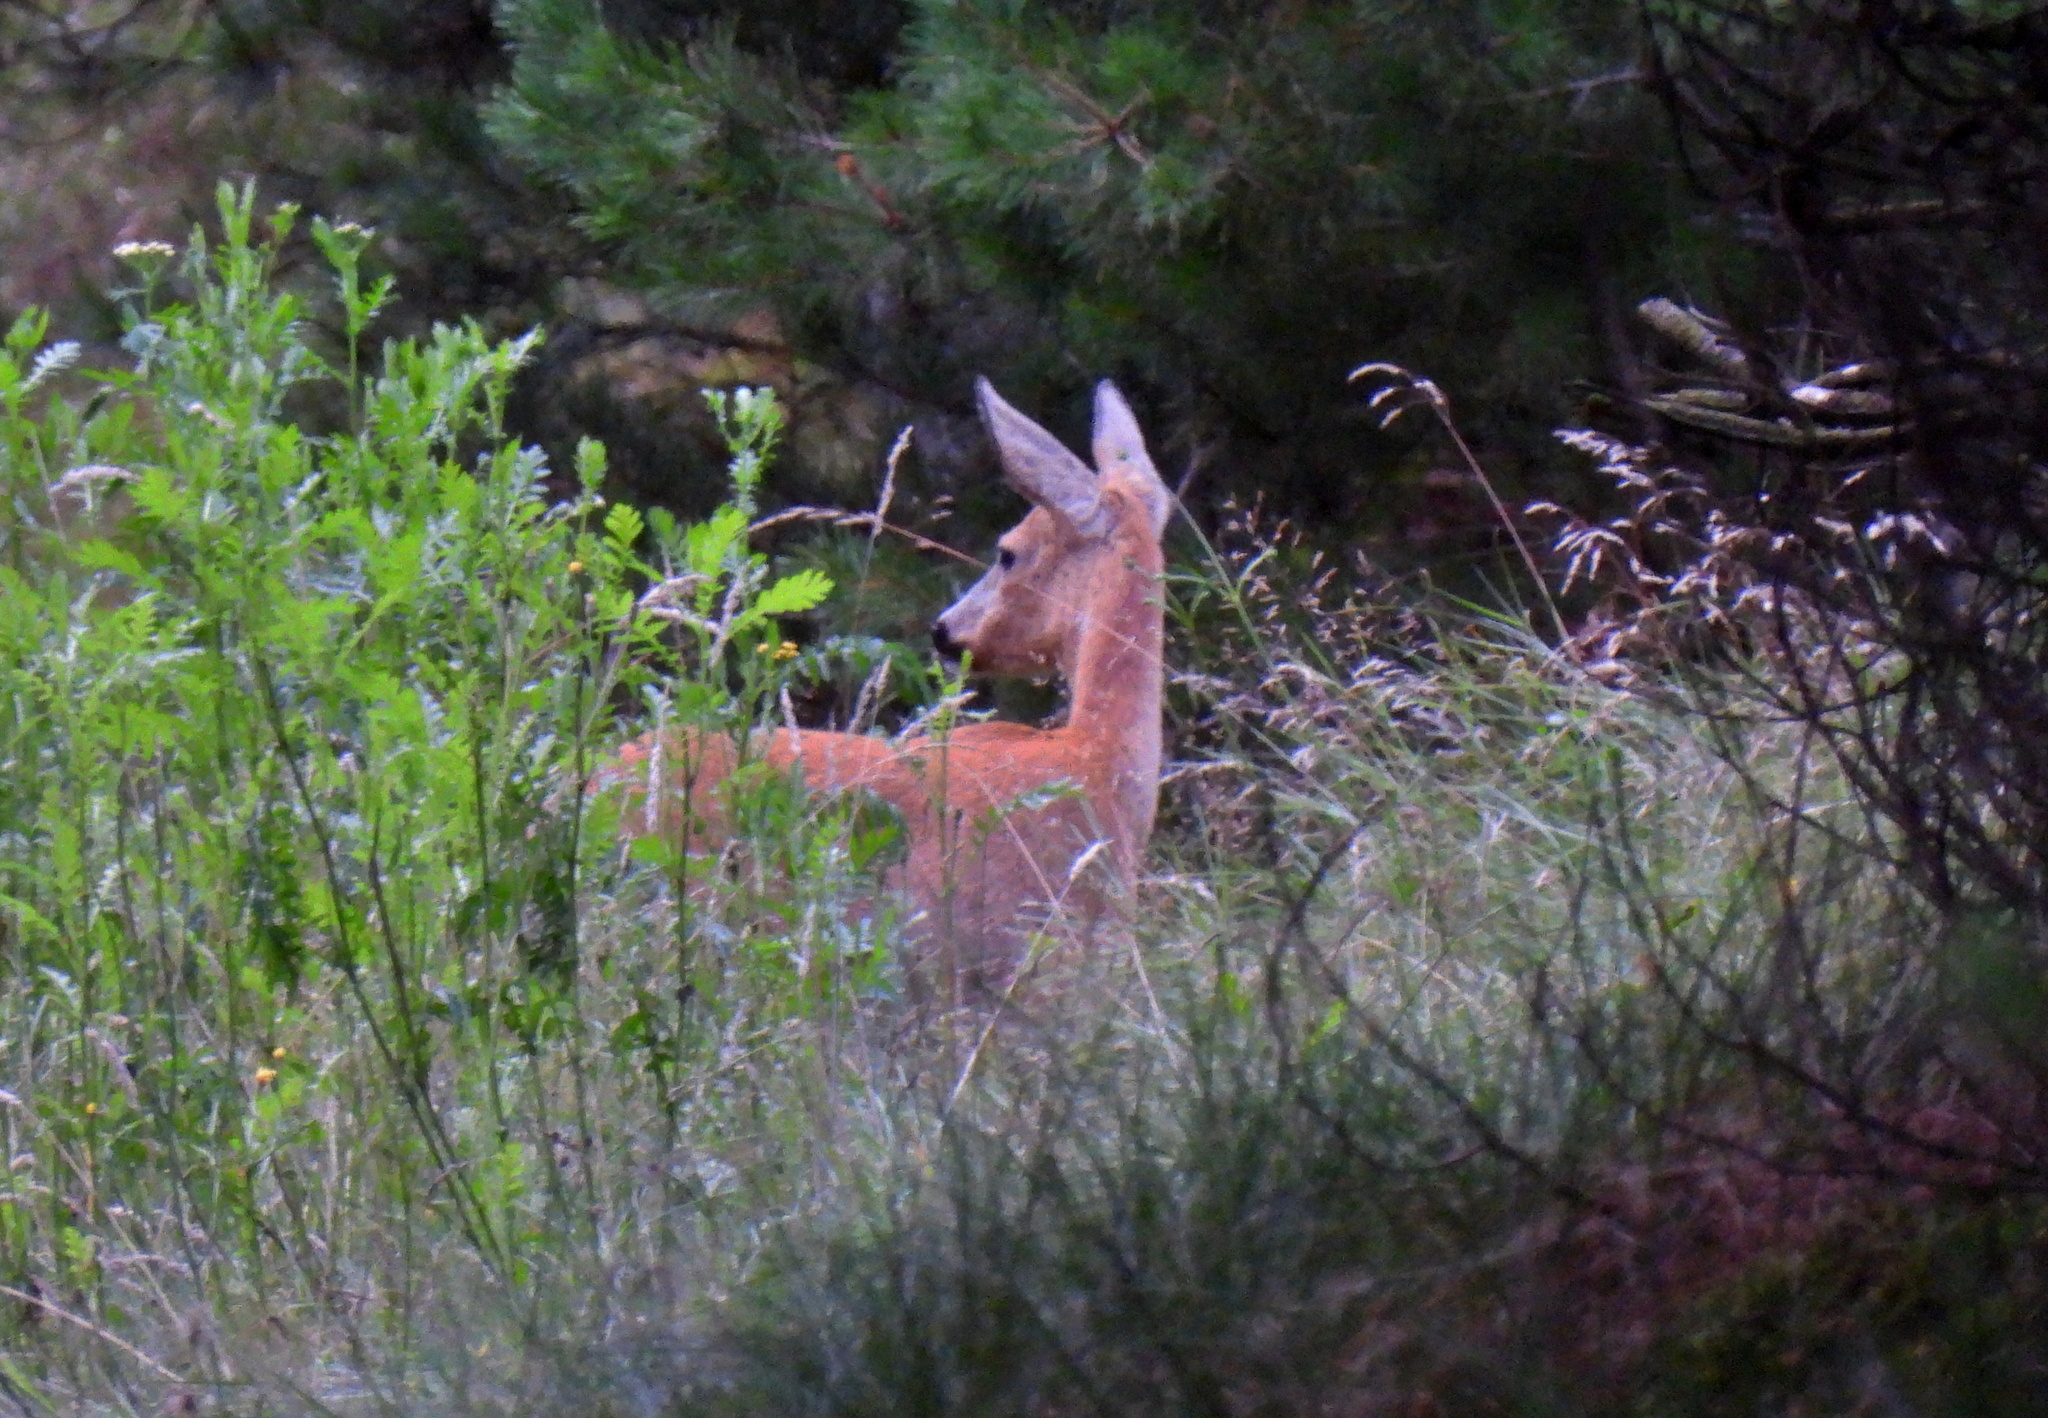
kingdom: Animalia
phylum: Chordata
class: Mammalia
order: Artiodactyla
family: Cervidae
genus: Capreolus
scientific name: Capreolus capreolus
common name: Western roe deer
